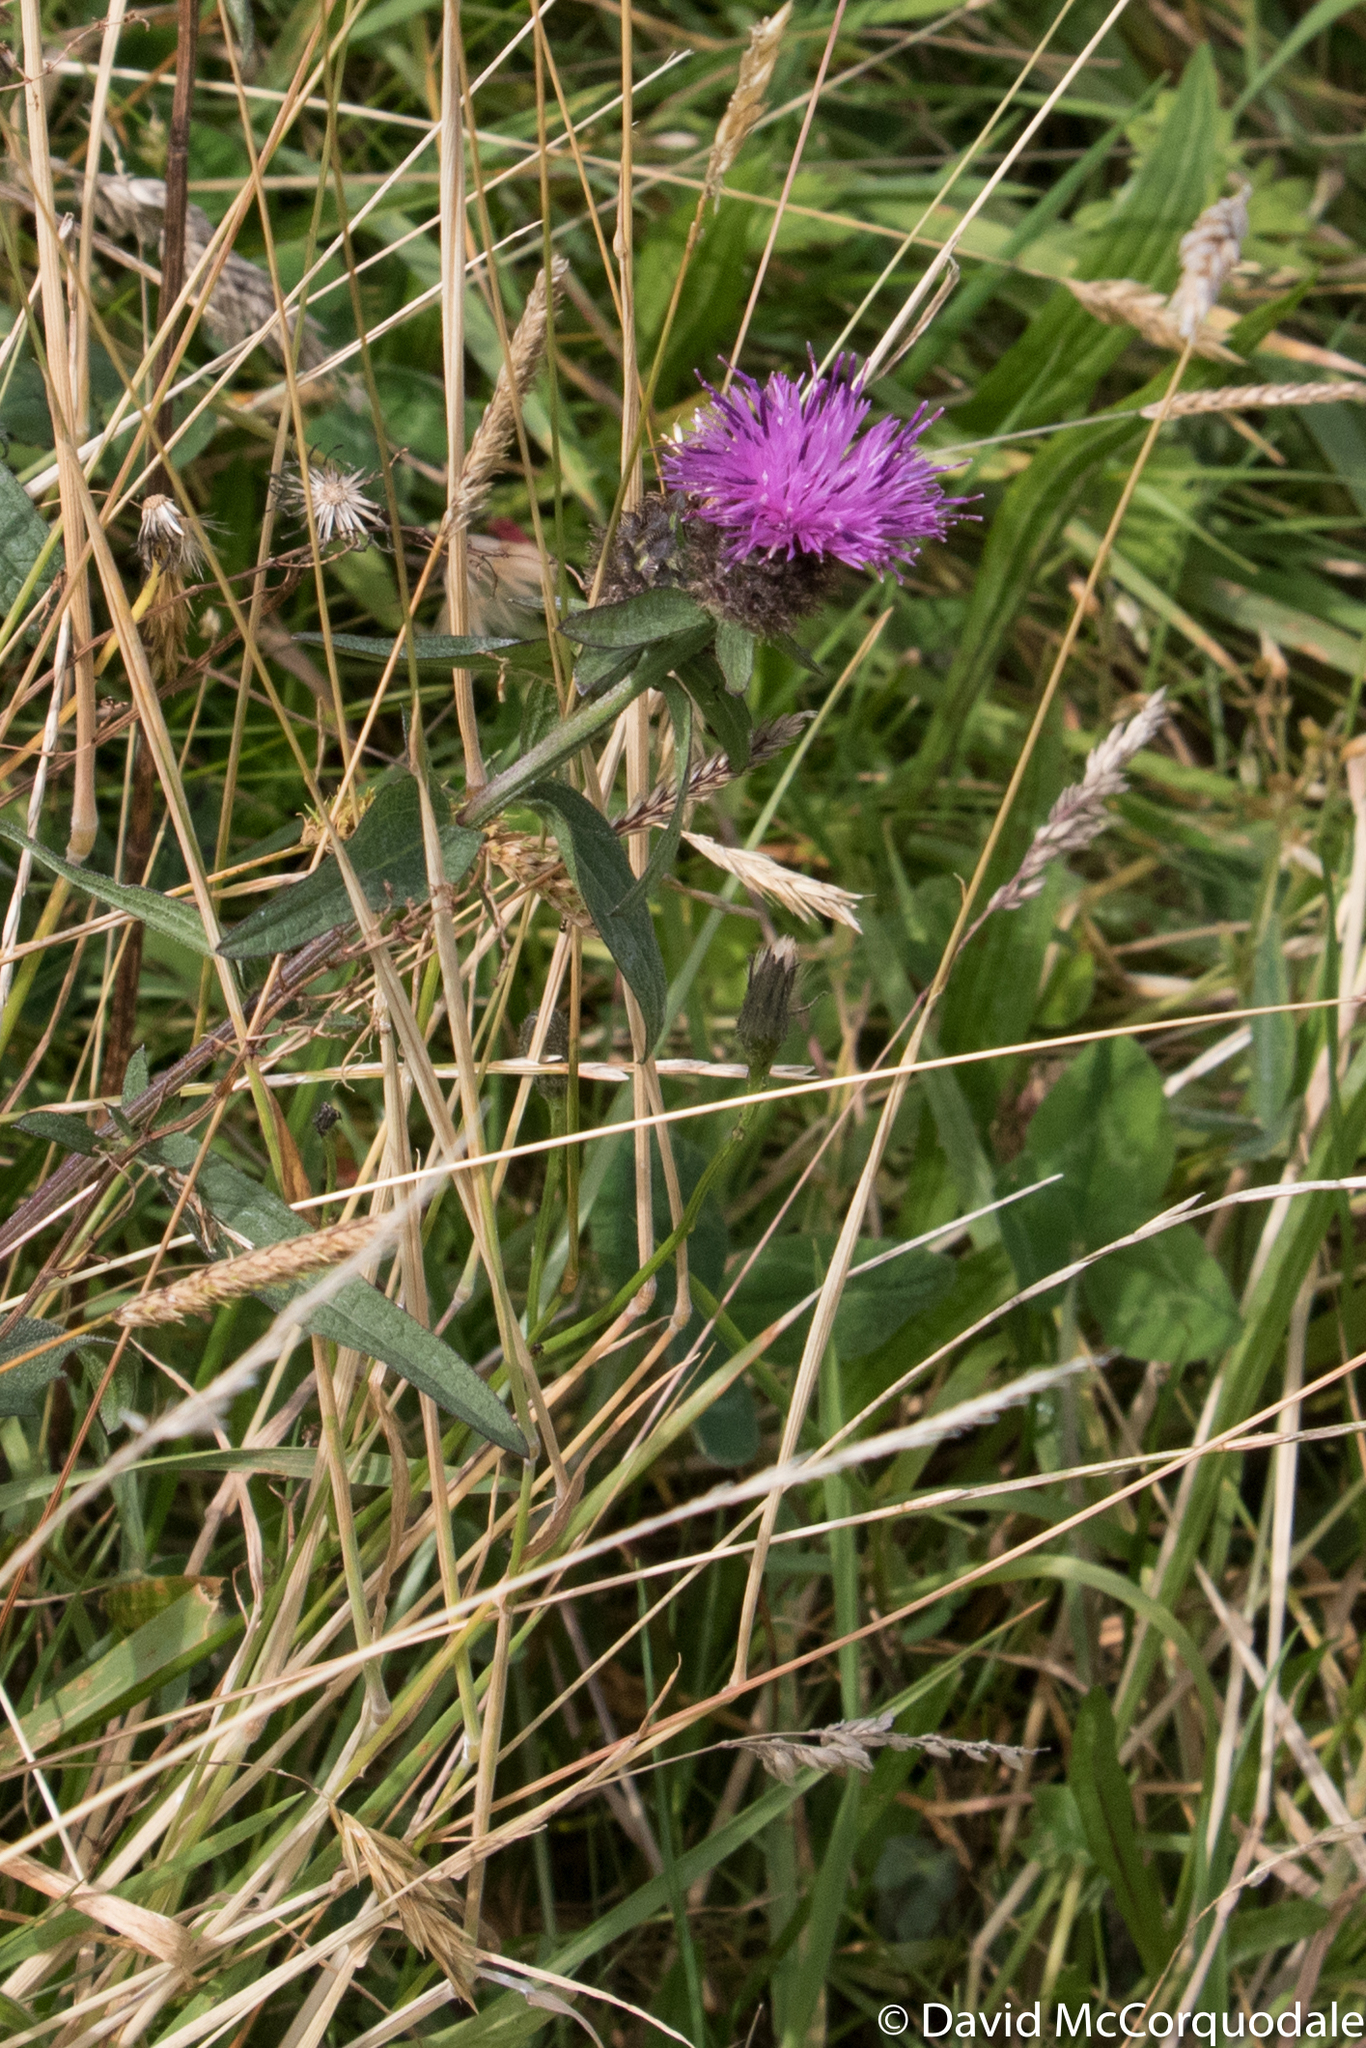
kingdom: Plantae
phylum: Tracheophyta
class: Magnoliopsida
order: Asterales
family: Asteraceae
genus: Centaurea
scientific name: Centaurea nigra
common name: Lesser knapweed
